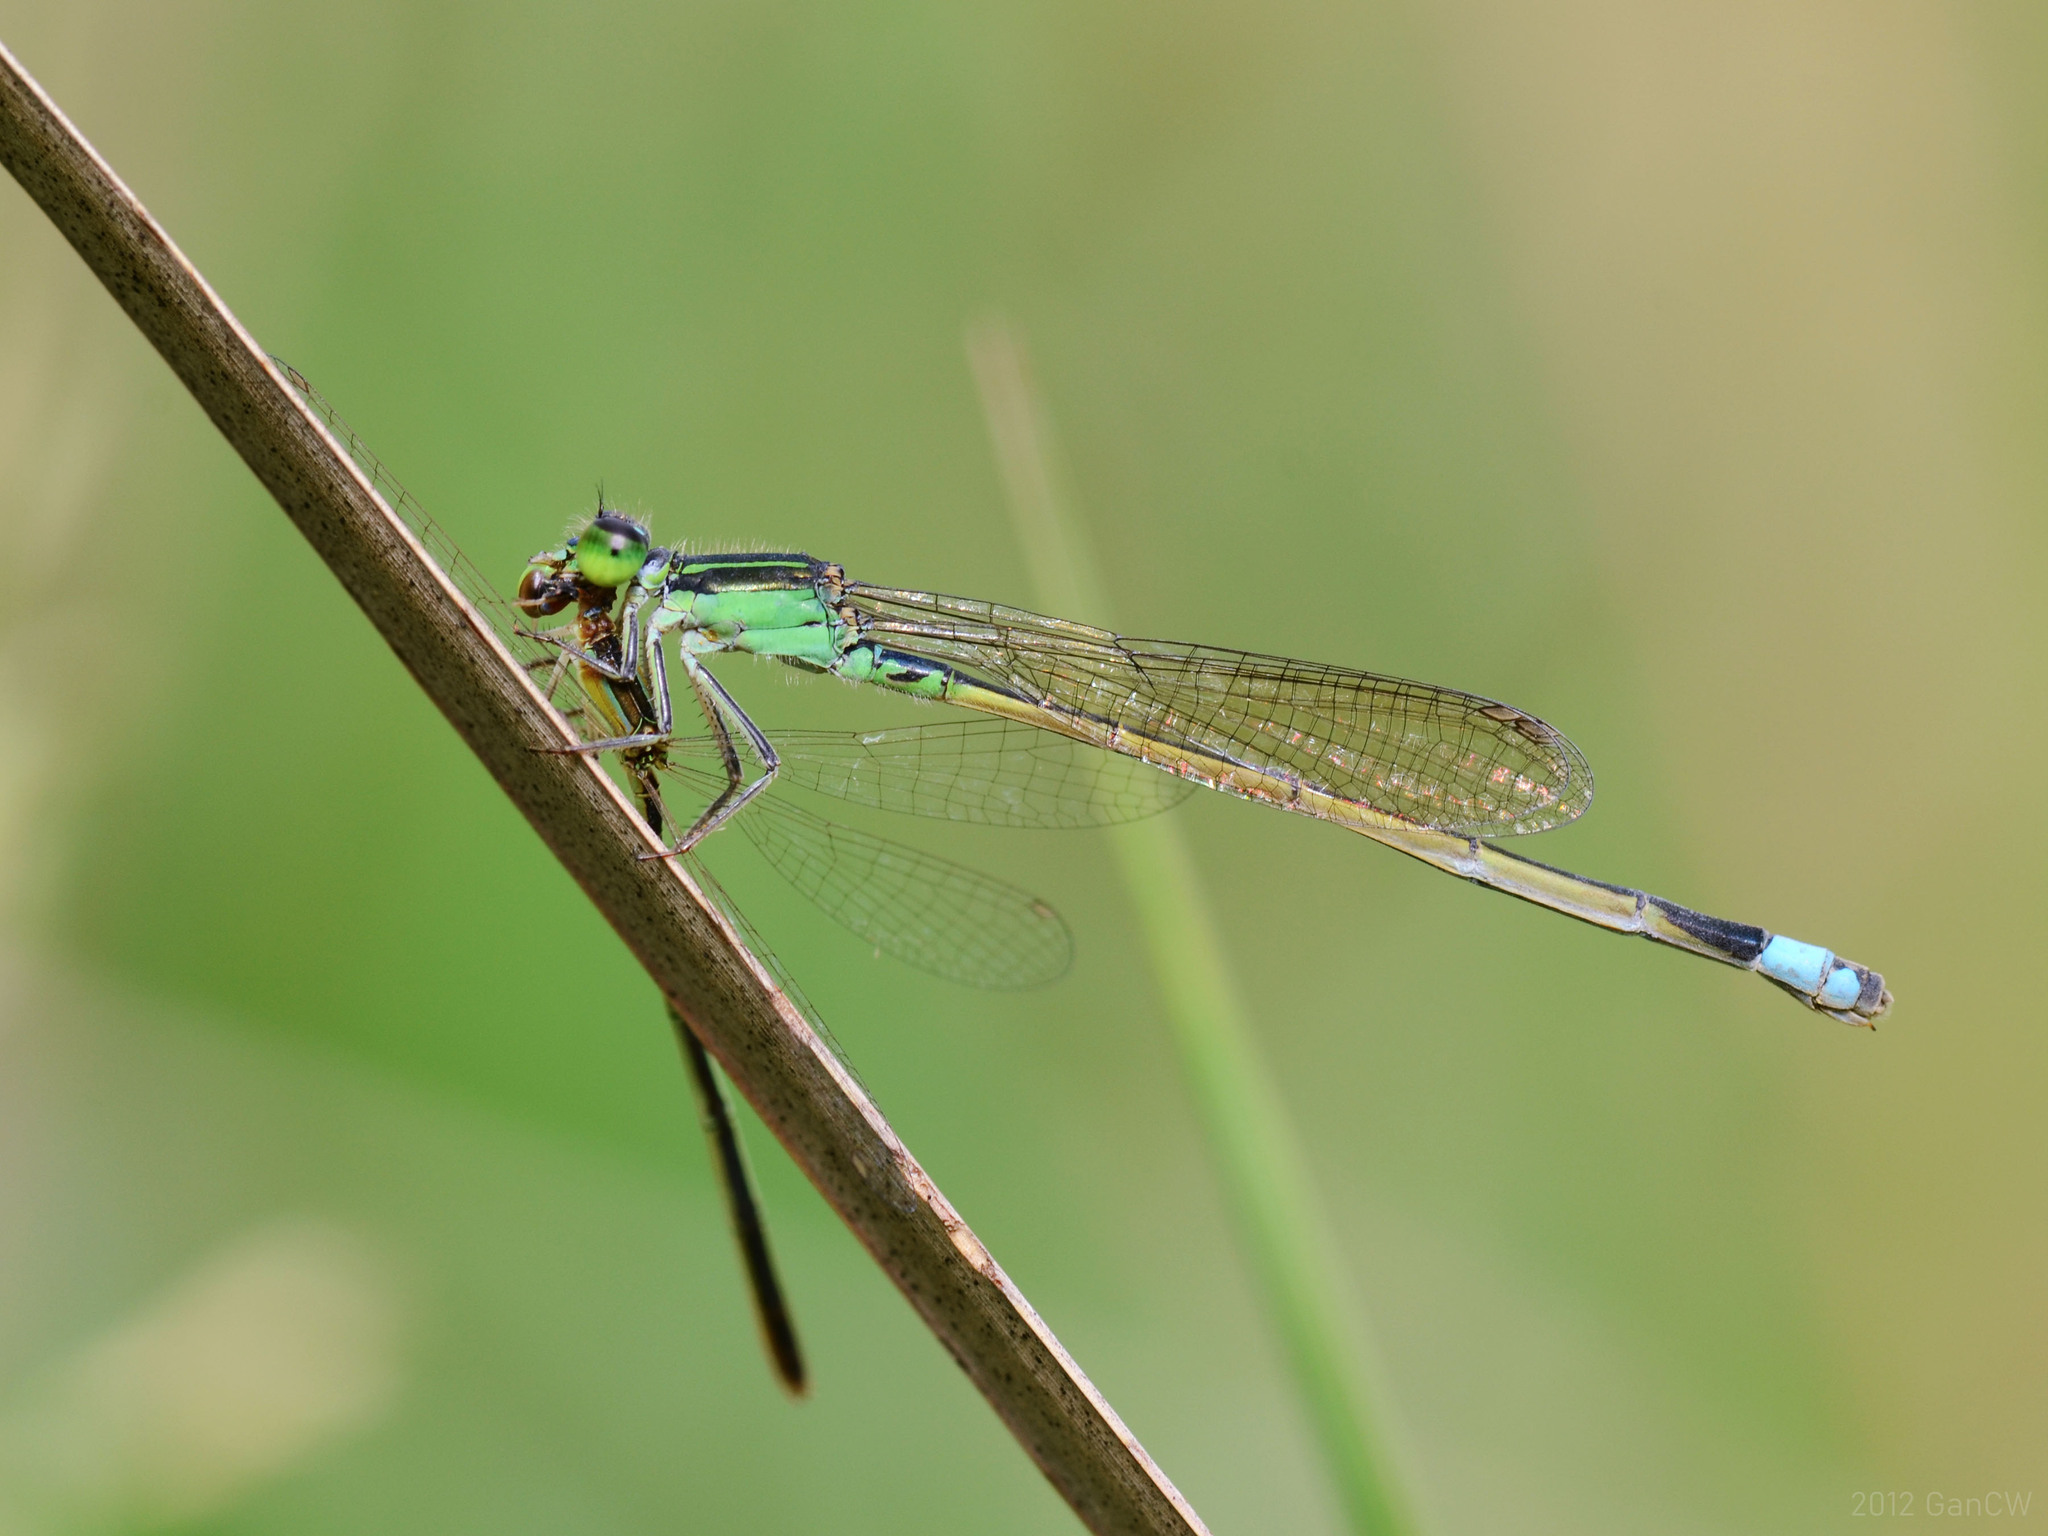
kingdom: Animalia
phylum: Arthropoda
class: Insecta
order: Odonata
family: Coenagrionidae
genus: Ischnura
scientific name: Ischnura senegalensis
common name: Tropical bluetail
